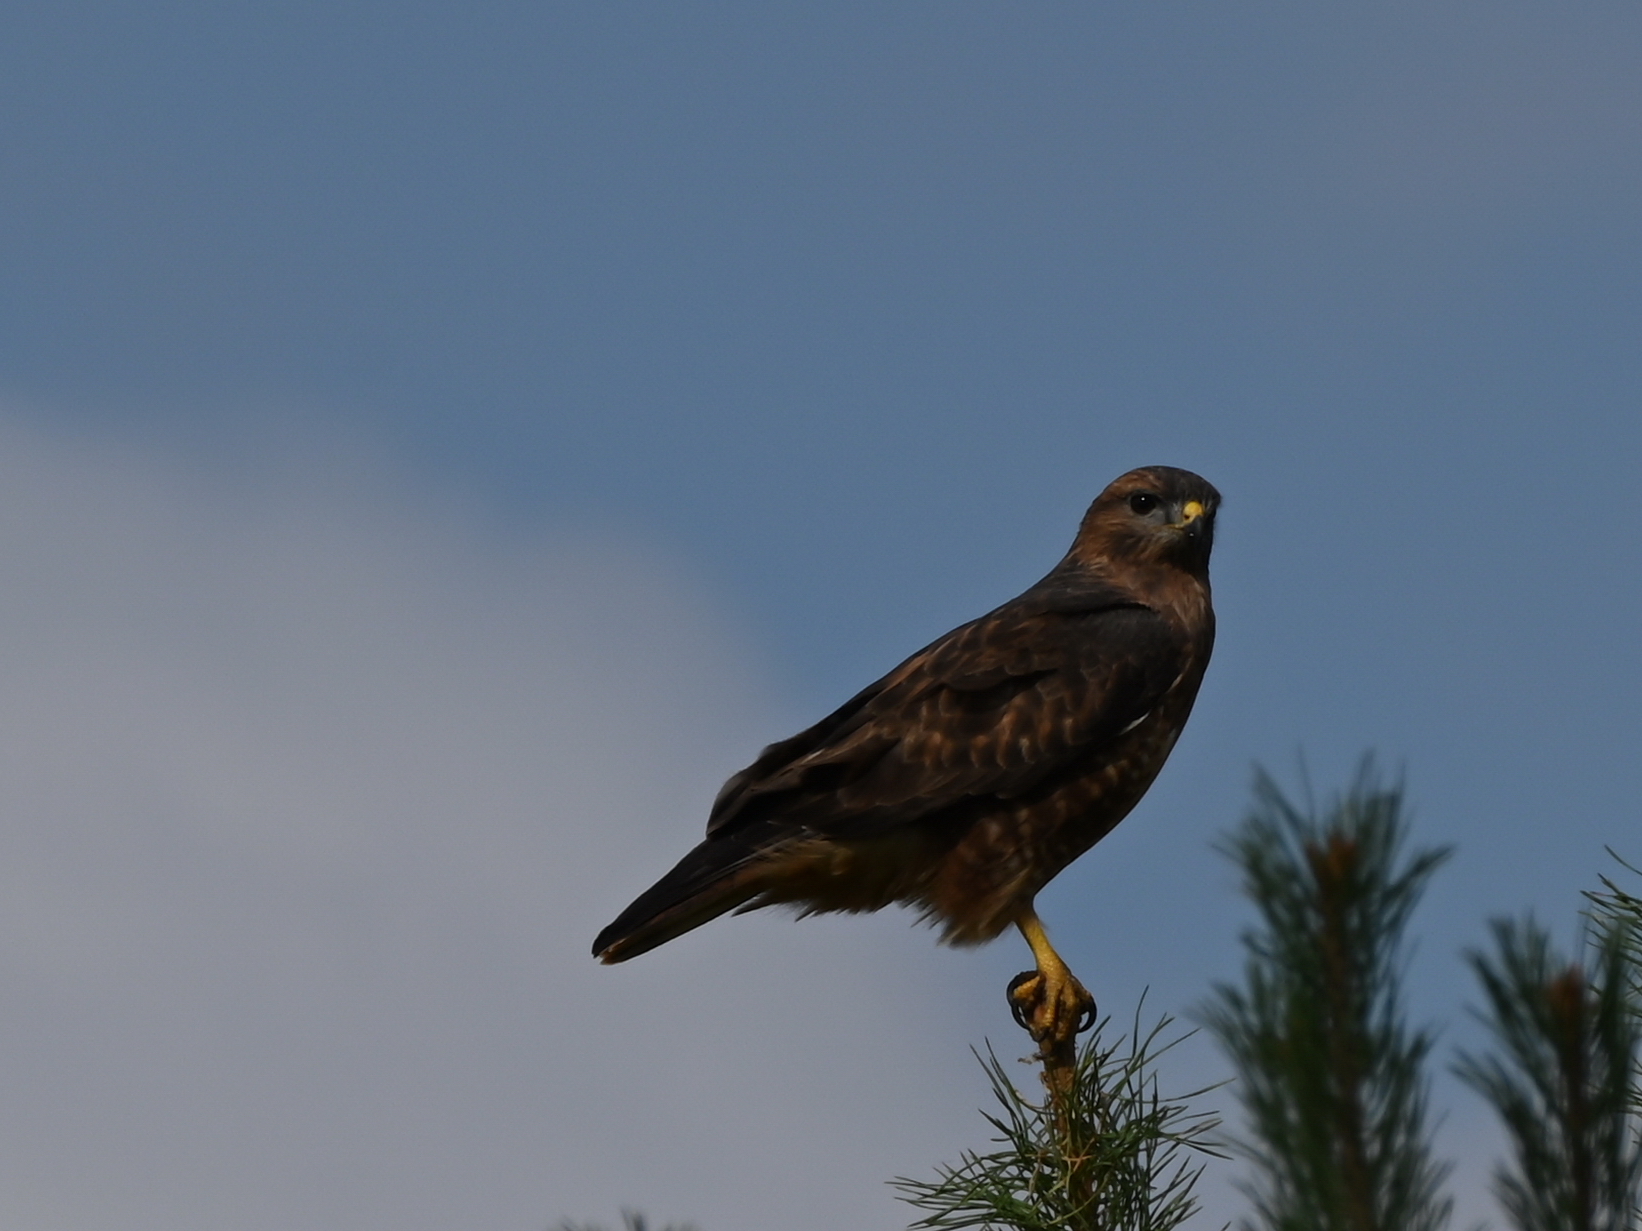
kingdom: Animalia
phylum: Chordata
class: Aves
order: Accipitriformes
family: Accipitridae
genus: Buteo
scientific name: Buteo buteo
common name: Common buzzard
